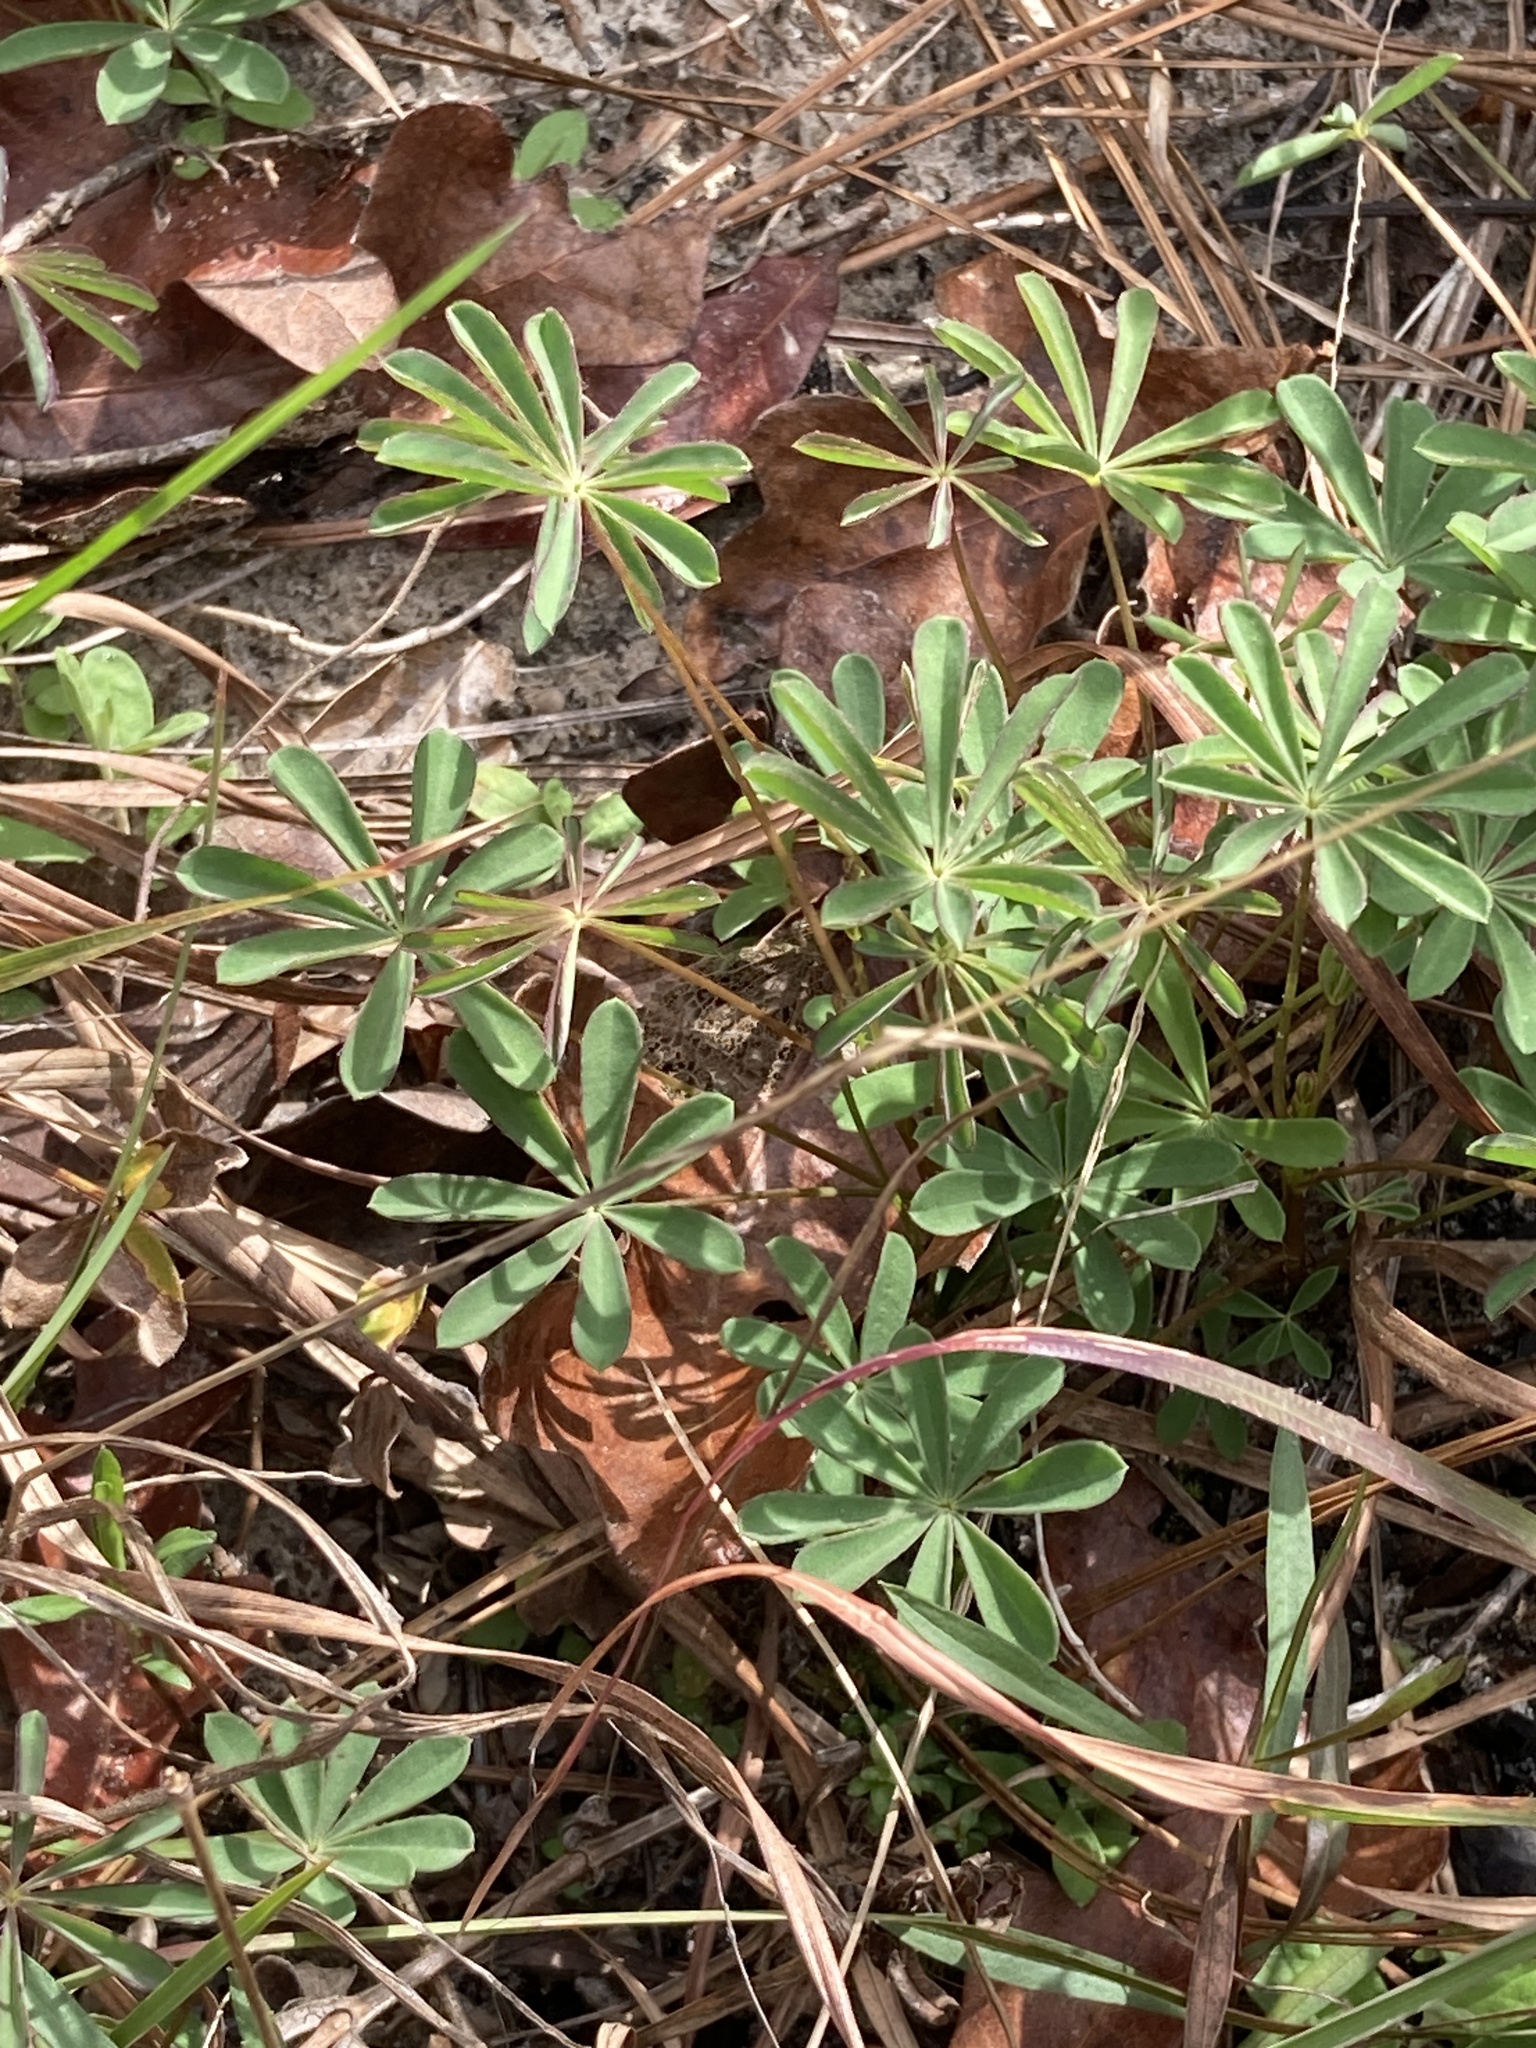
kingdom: Plantae
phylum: Tracheophyta
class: Magnoliopsida
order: Fabales
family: Fabaceae
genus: Lupinus
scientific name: Lupinus perennis
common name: Sundial lupine
